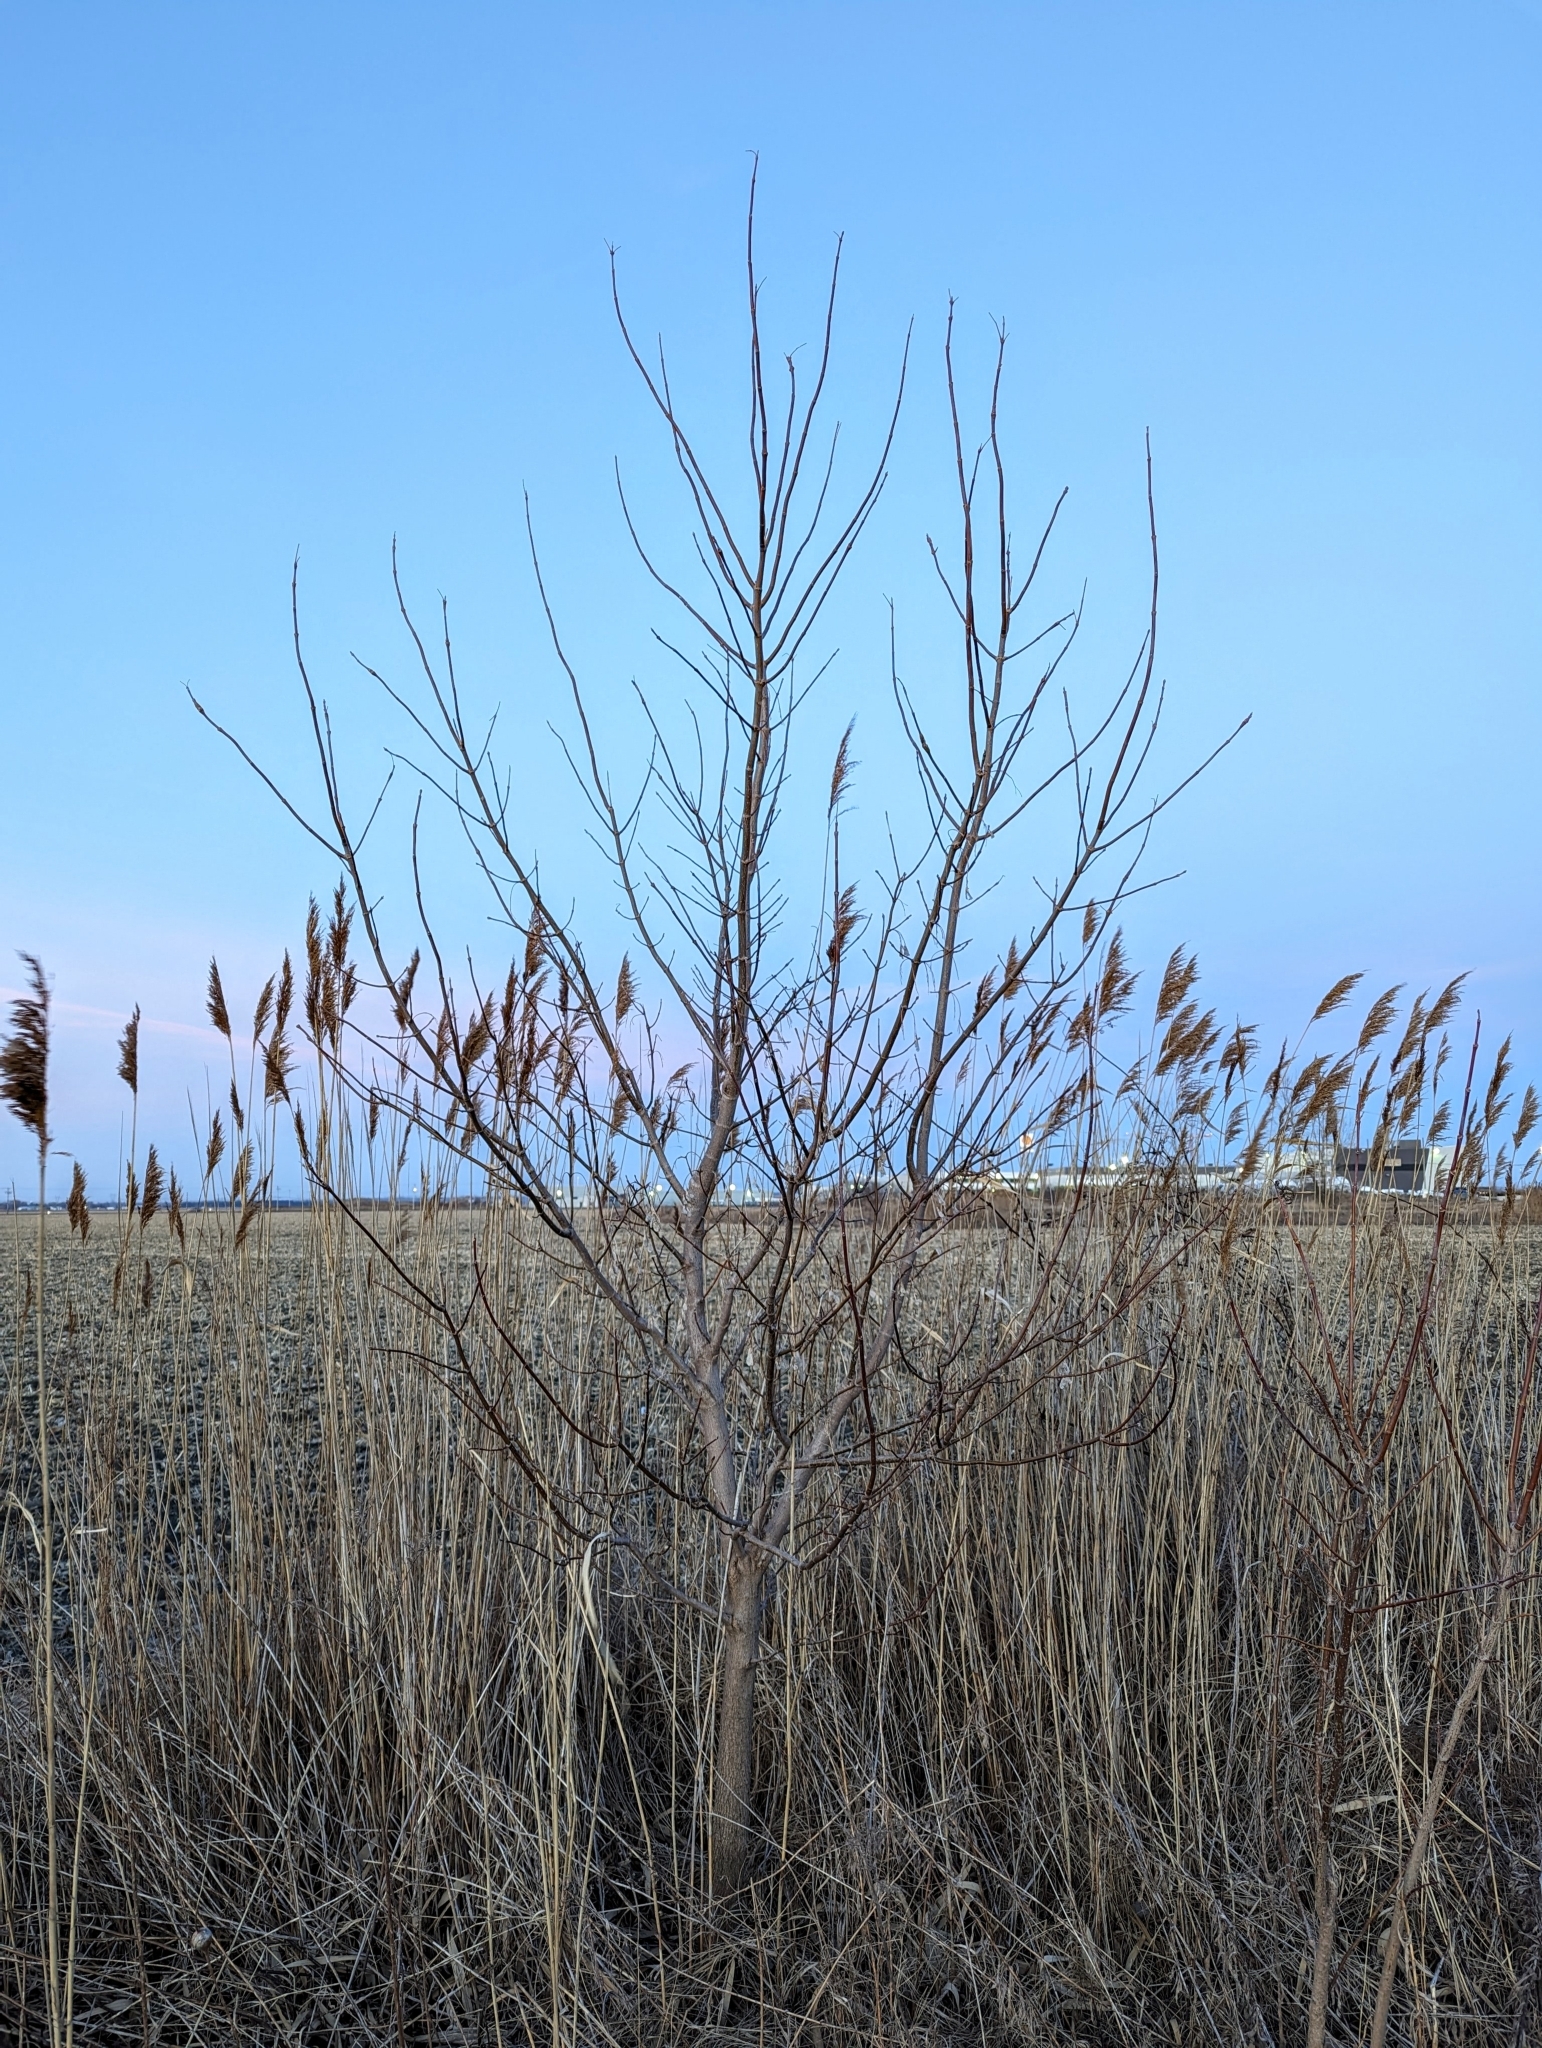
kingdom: Plantae
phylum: Tracheophyta
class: Magnoliopsida
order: Sapindales
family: Sapindaceae
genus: Acer
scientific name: Acer negundo
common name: Ashleaf maple
